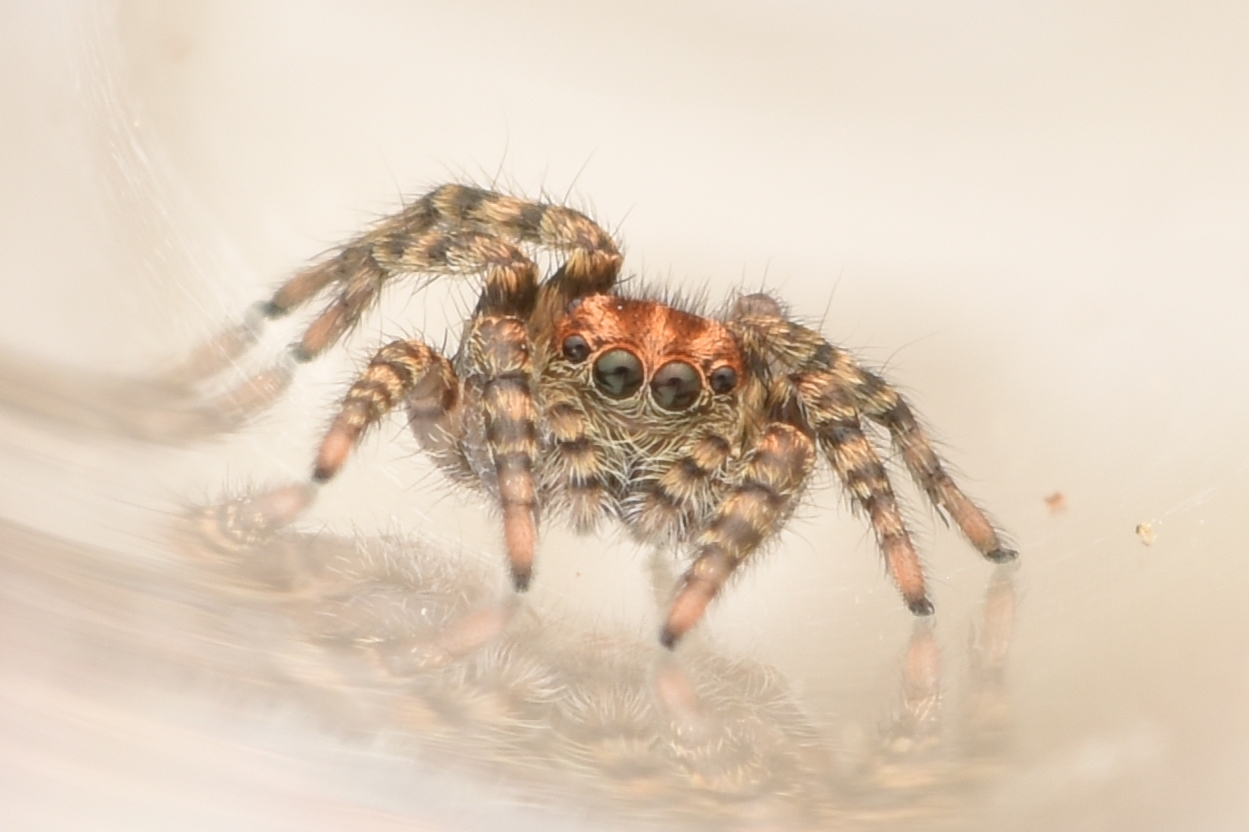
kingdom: Animalia
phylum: Arthropoda
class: Arachnida
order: Araneae
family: Salticidae
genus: Phlegra
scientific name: Phlegra hentzi
